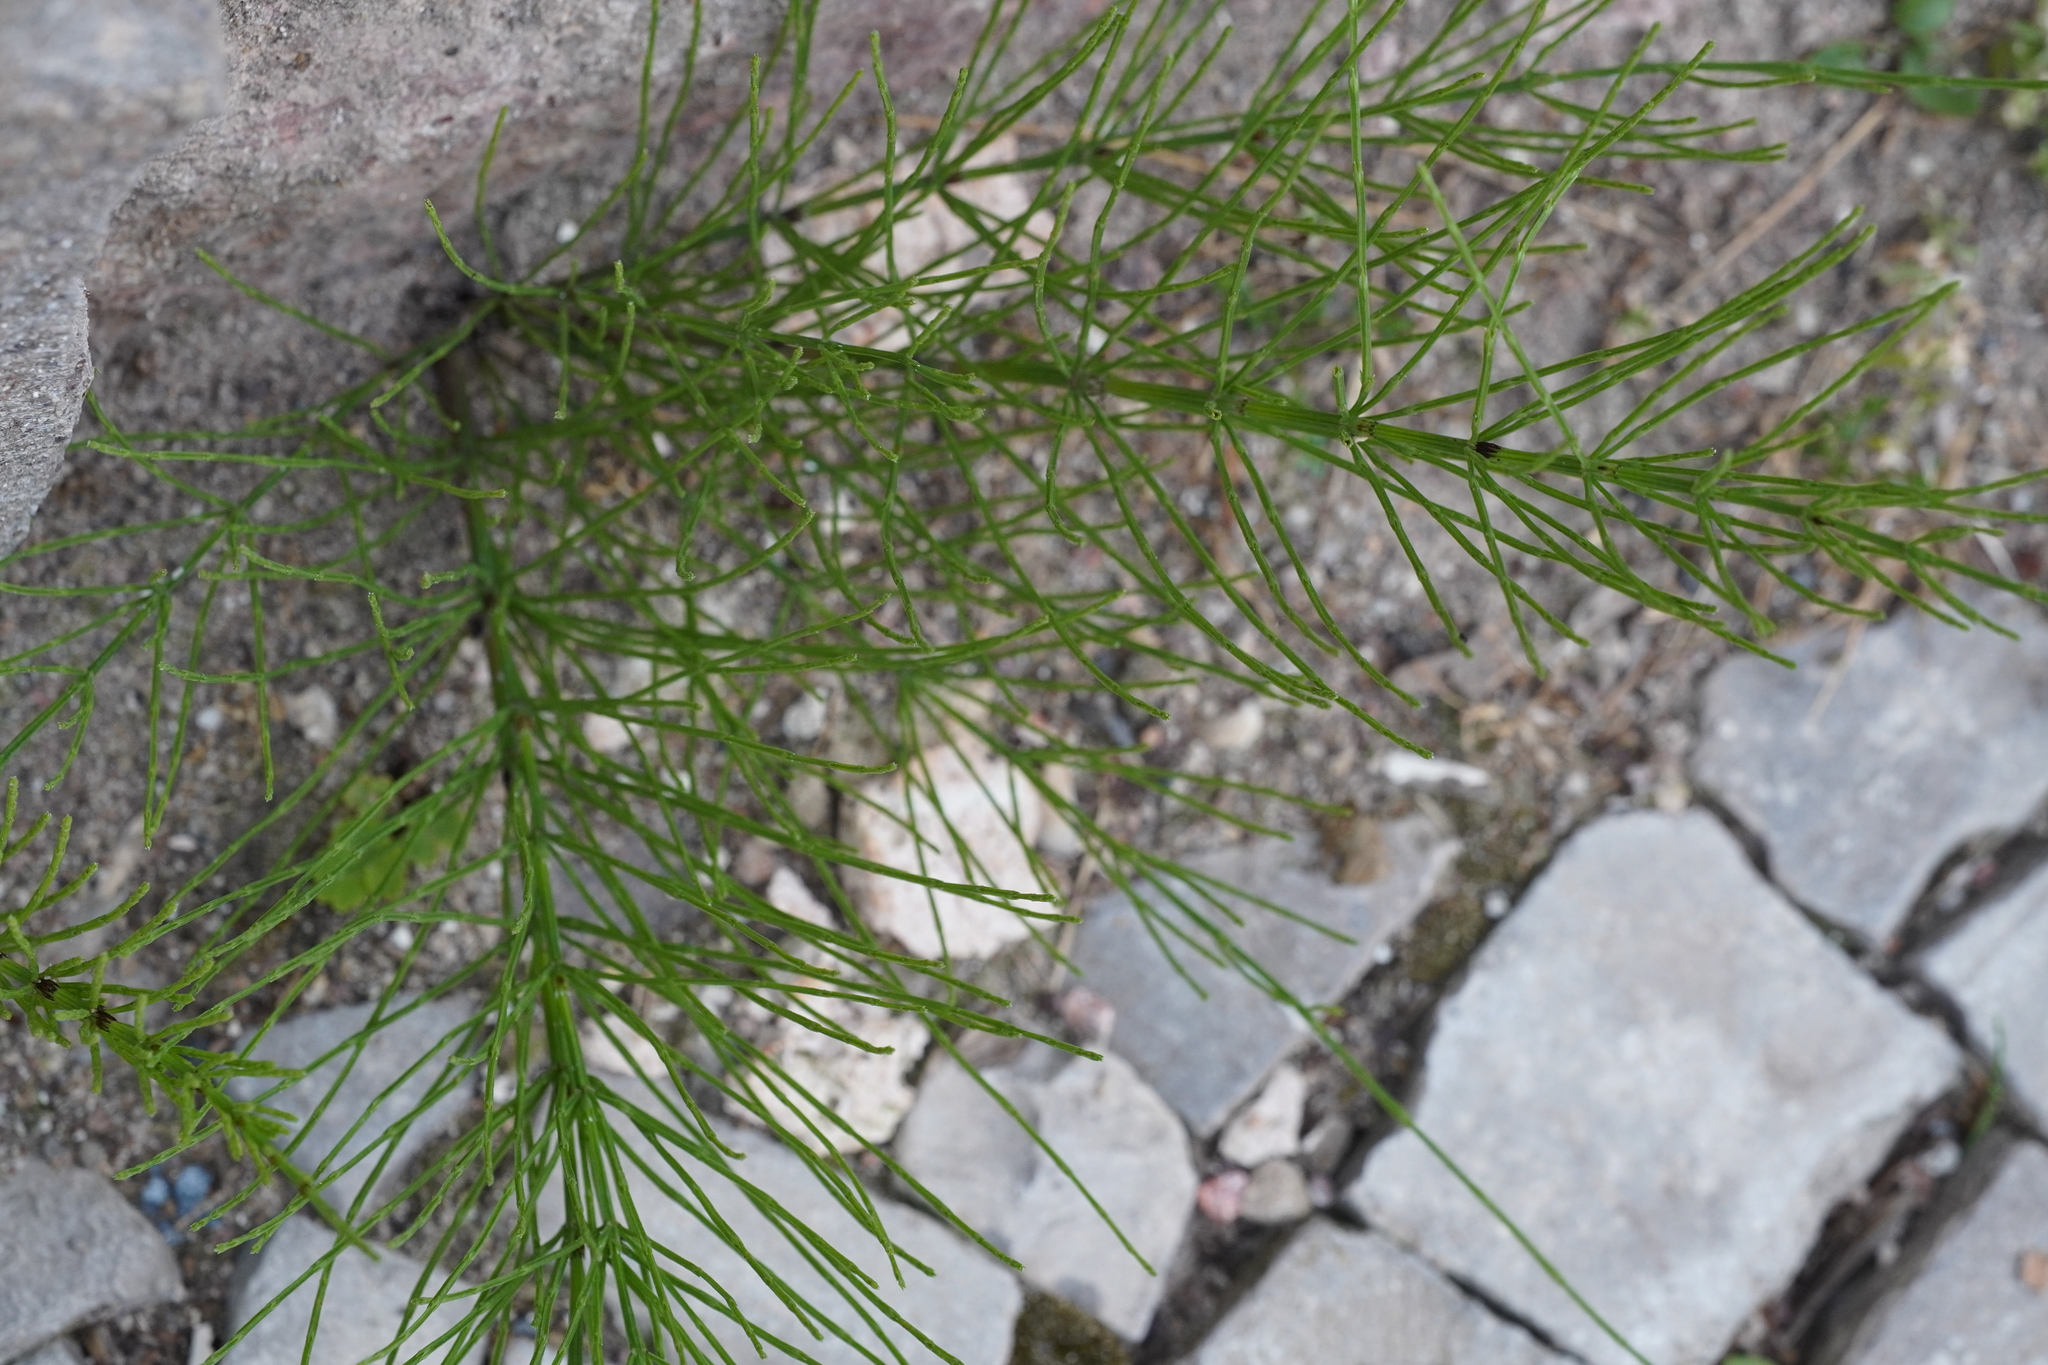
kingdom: Plantae
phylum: Tracheophyta
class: Polypodiopsida
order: Equisetales
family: Equisetaceae
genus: Equisetum
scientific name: Equisetum arvense
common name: Field horsetail
